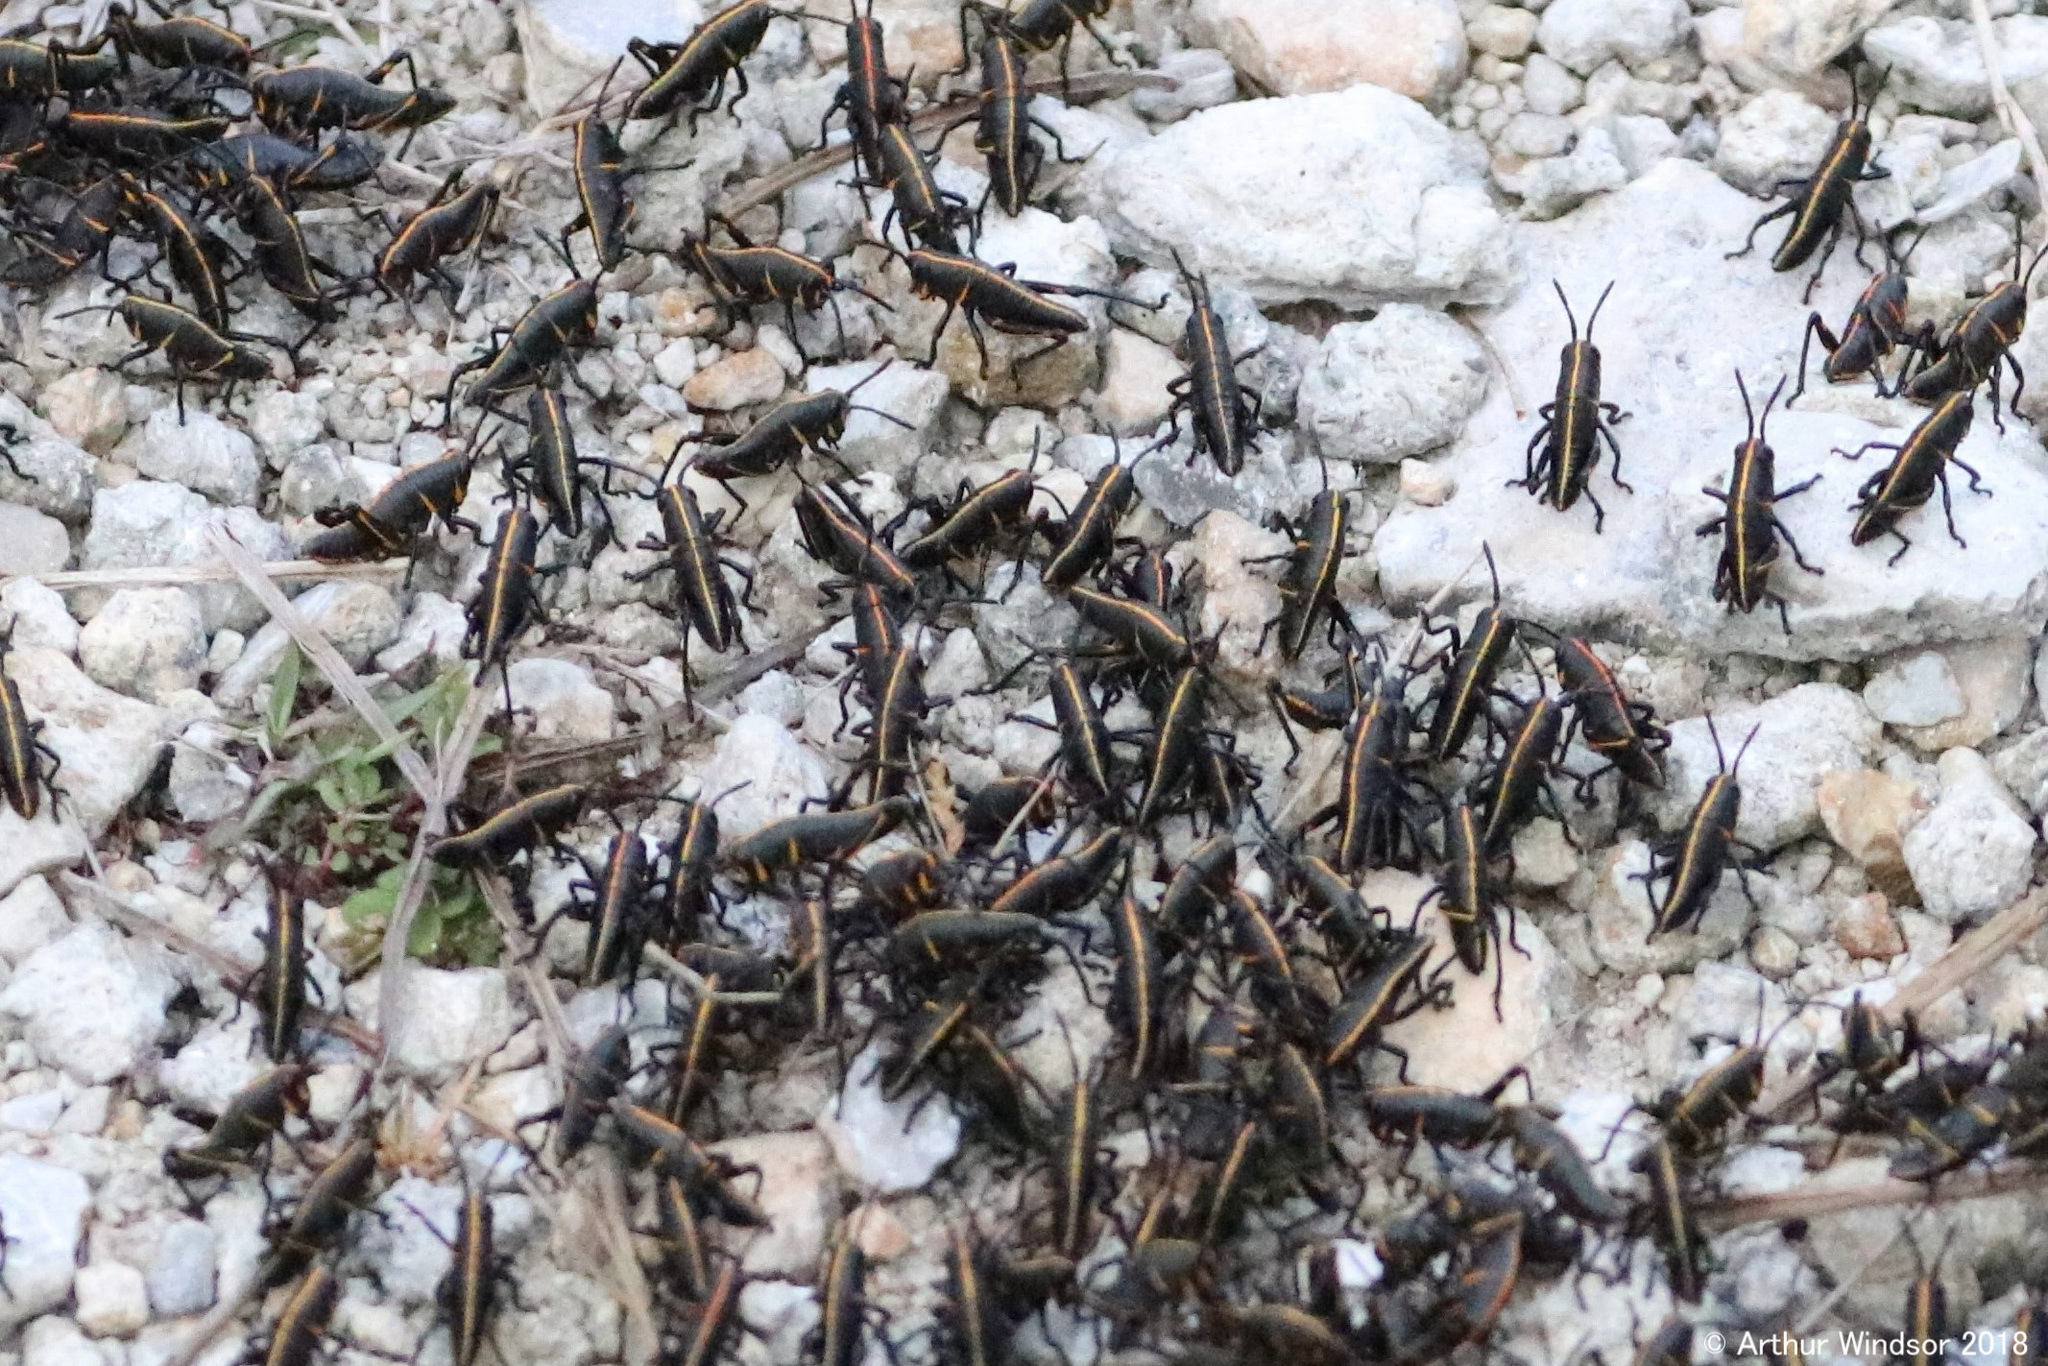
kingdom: Animalia
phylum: Arthropoda
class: Insecta
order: Orthoptera
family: Romaleidae
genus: Romalea
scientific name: Romalea microptera
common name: Eastern lubber grasshopper
